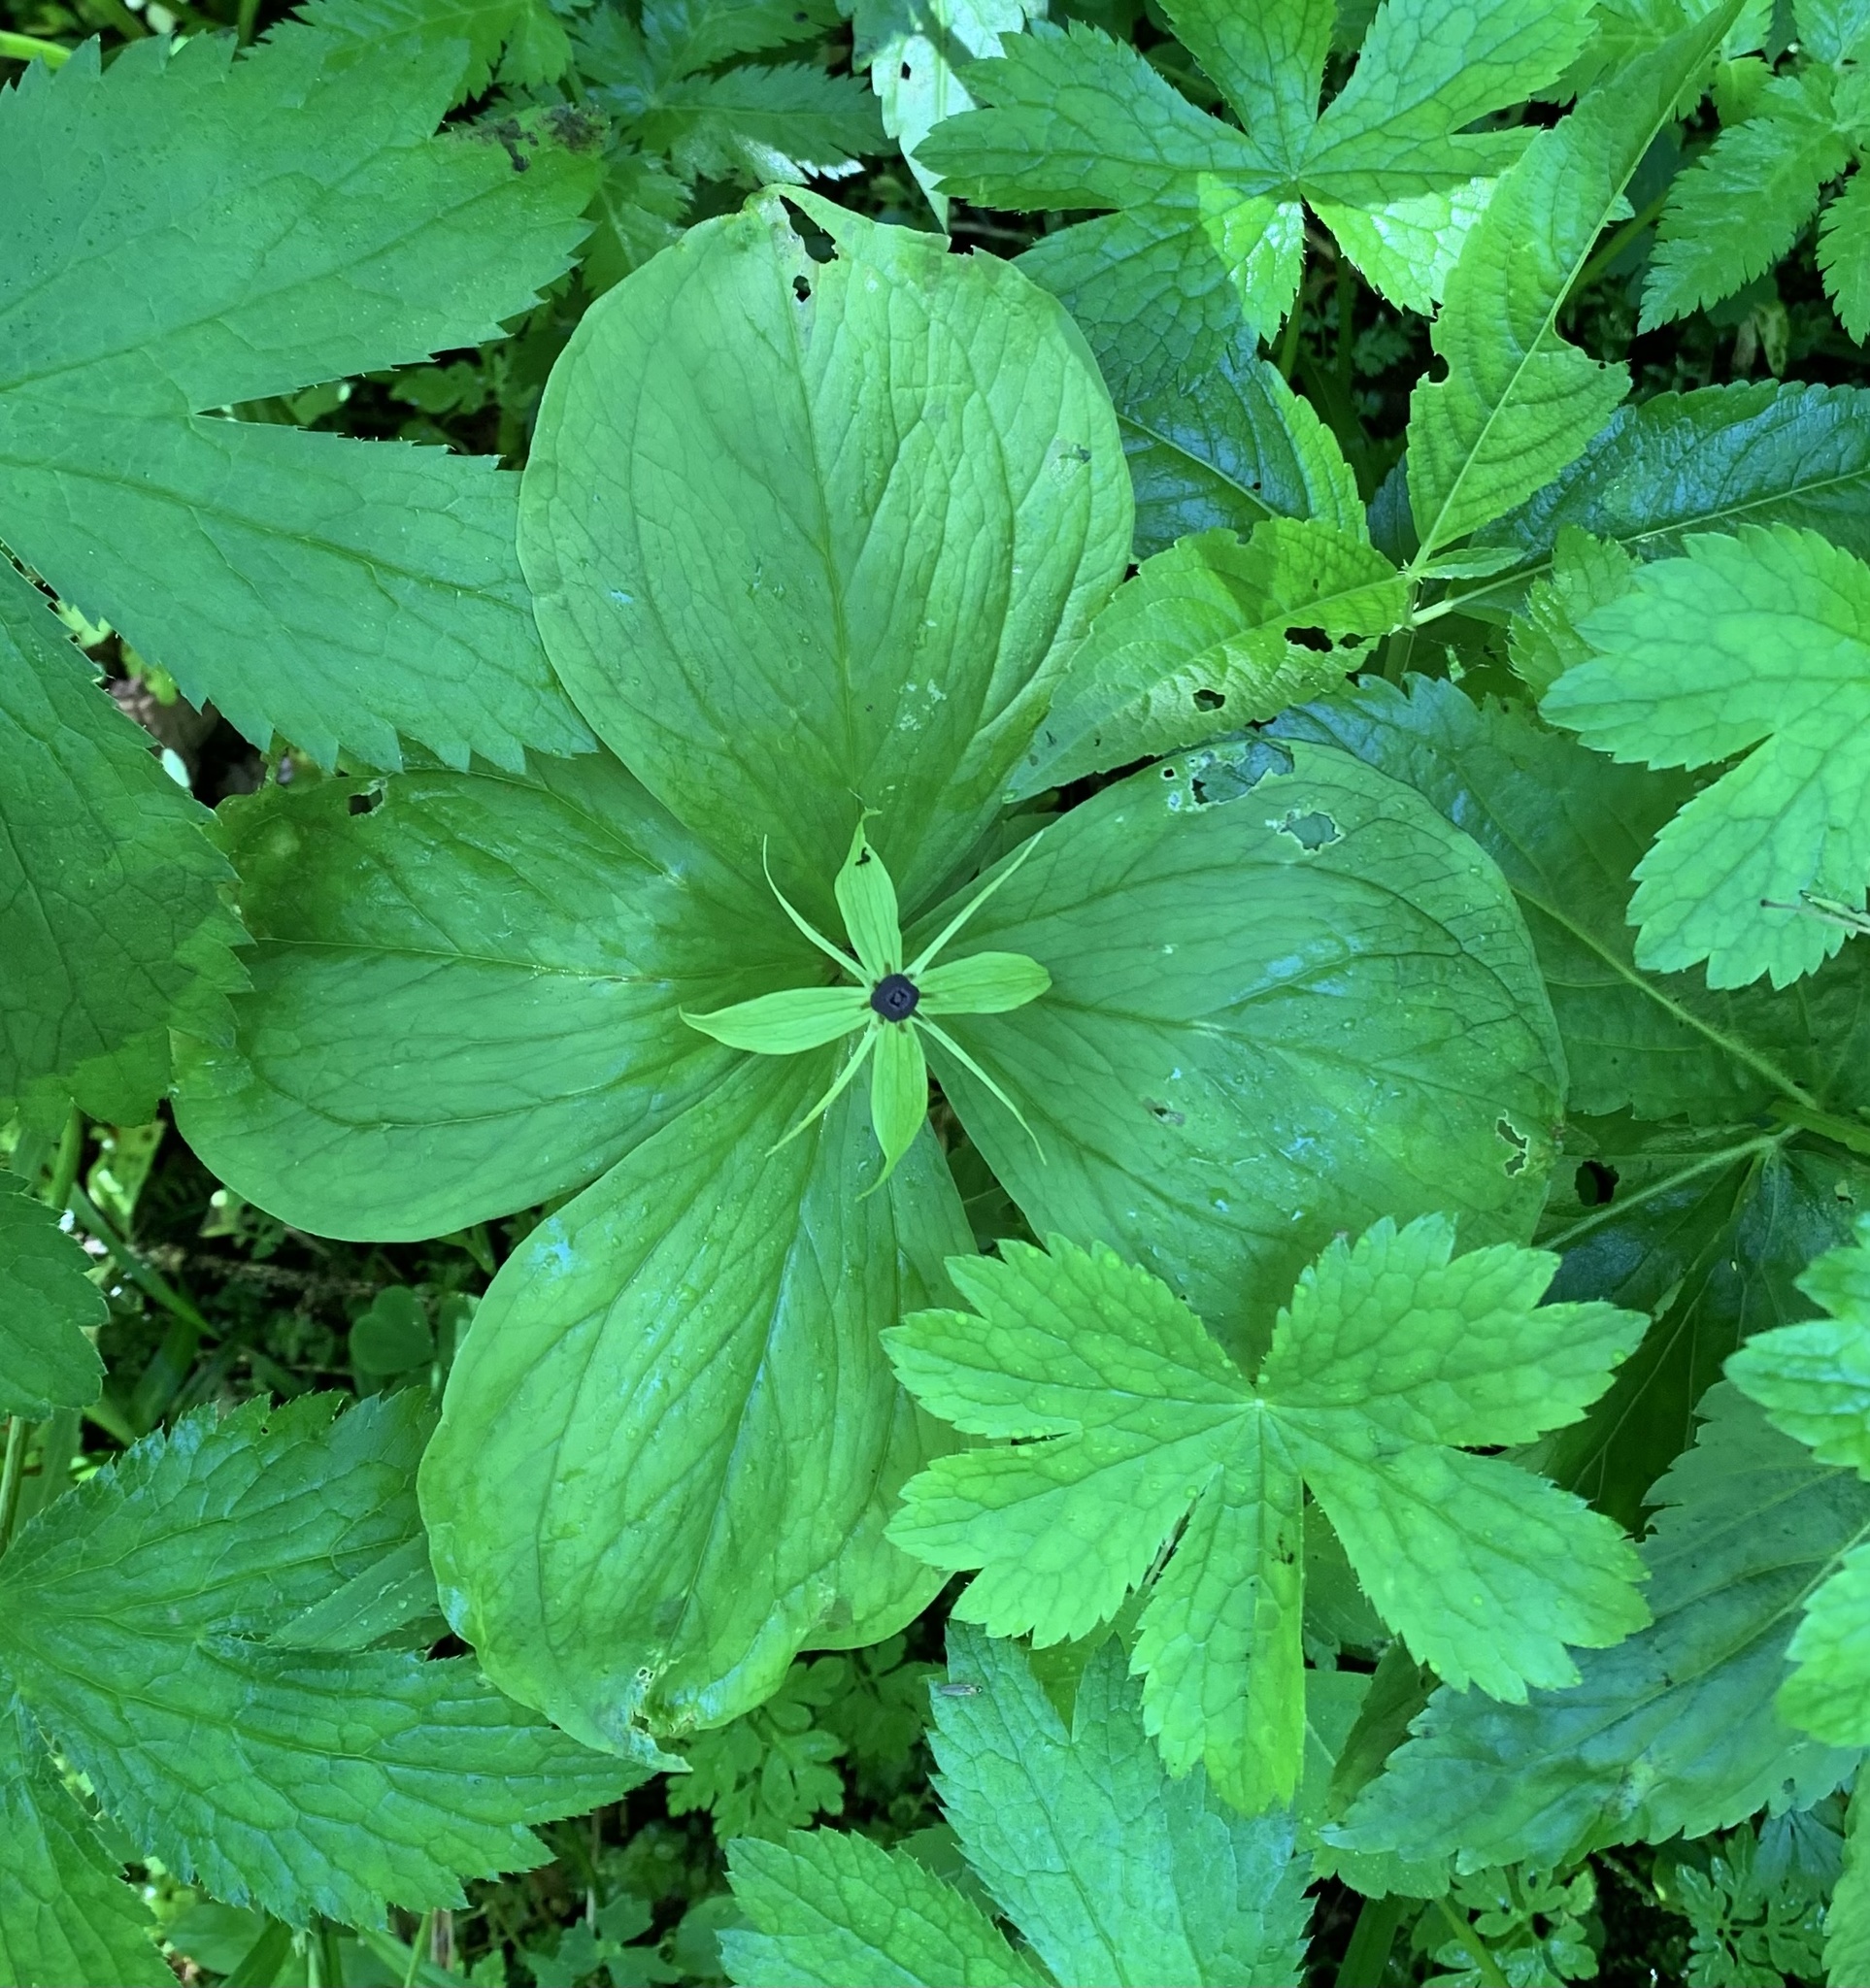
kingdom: Plantae
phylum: Tracheophyta
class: Liliopsida
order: Liliales
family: Melanthiaceae
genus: Paris
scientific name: Paris quadrifolia
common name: Herb-paris
